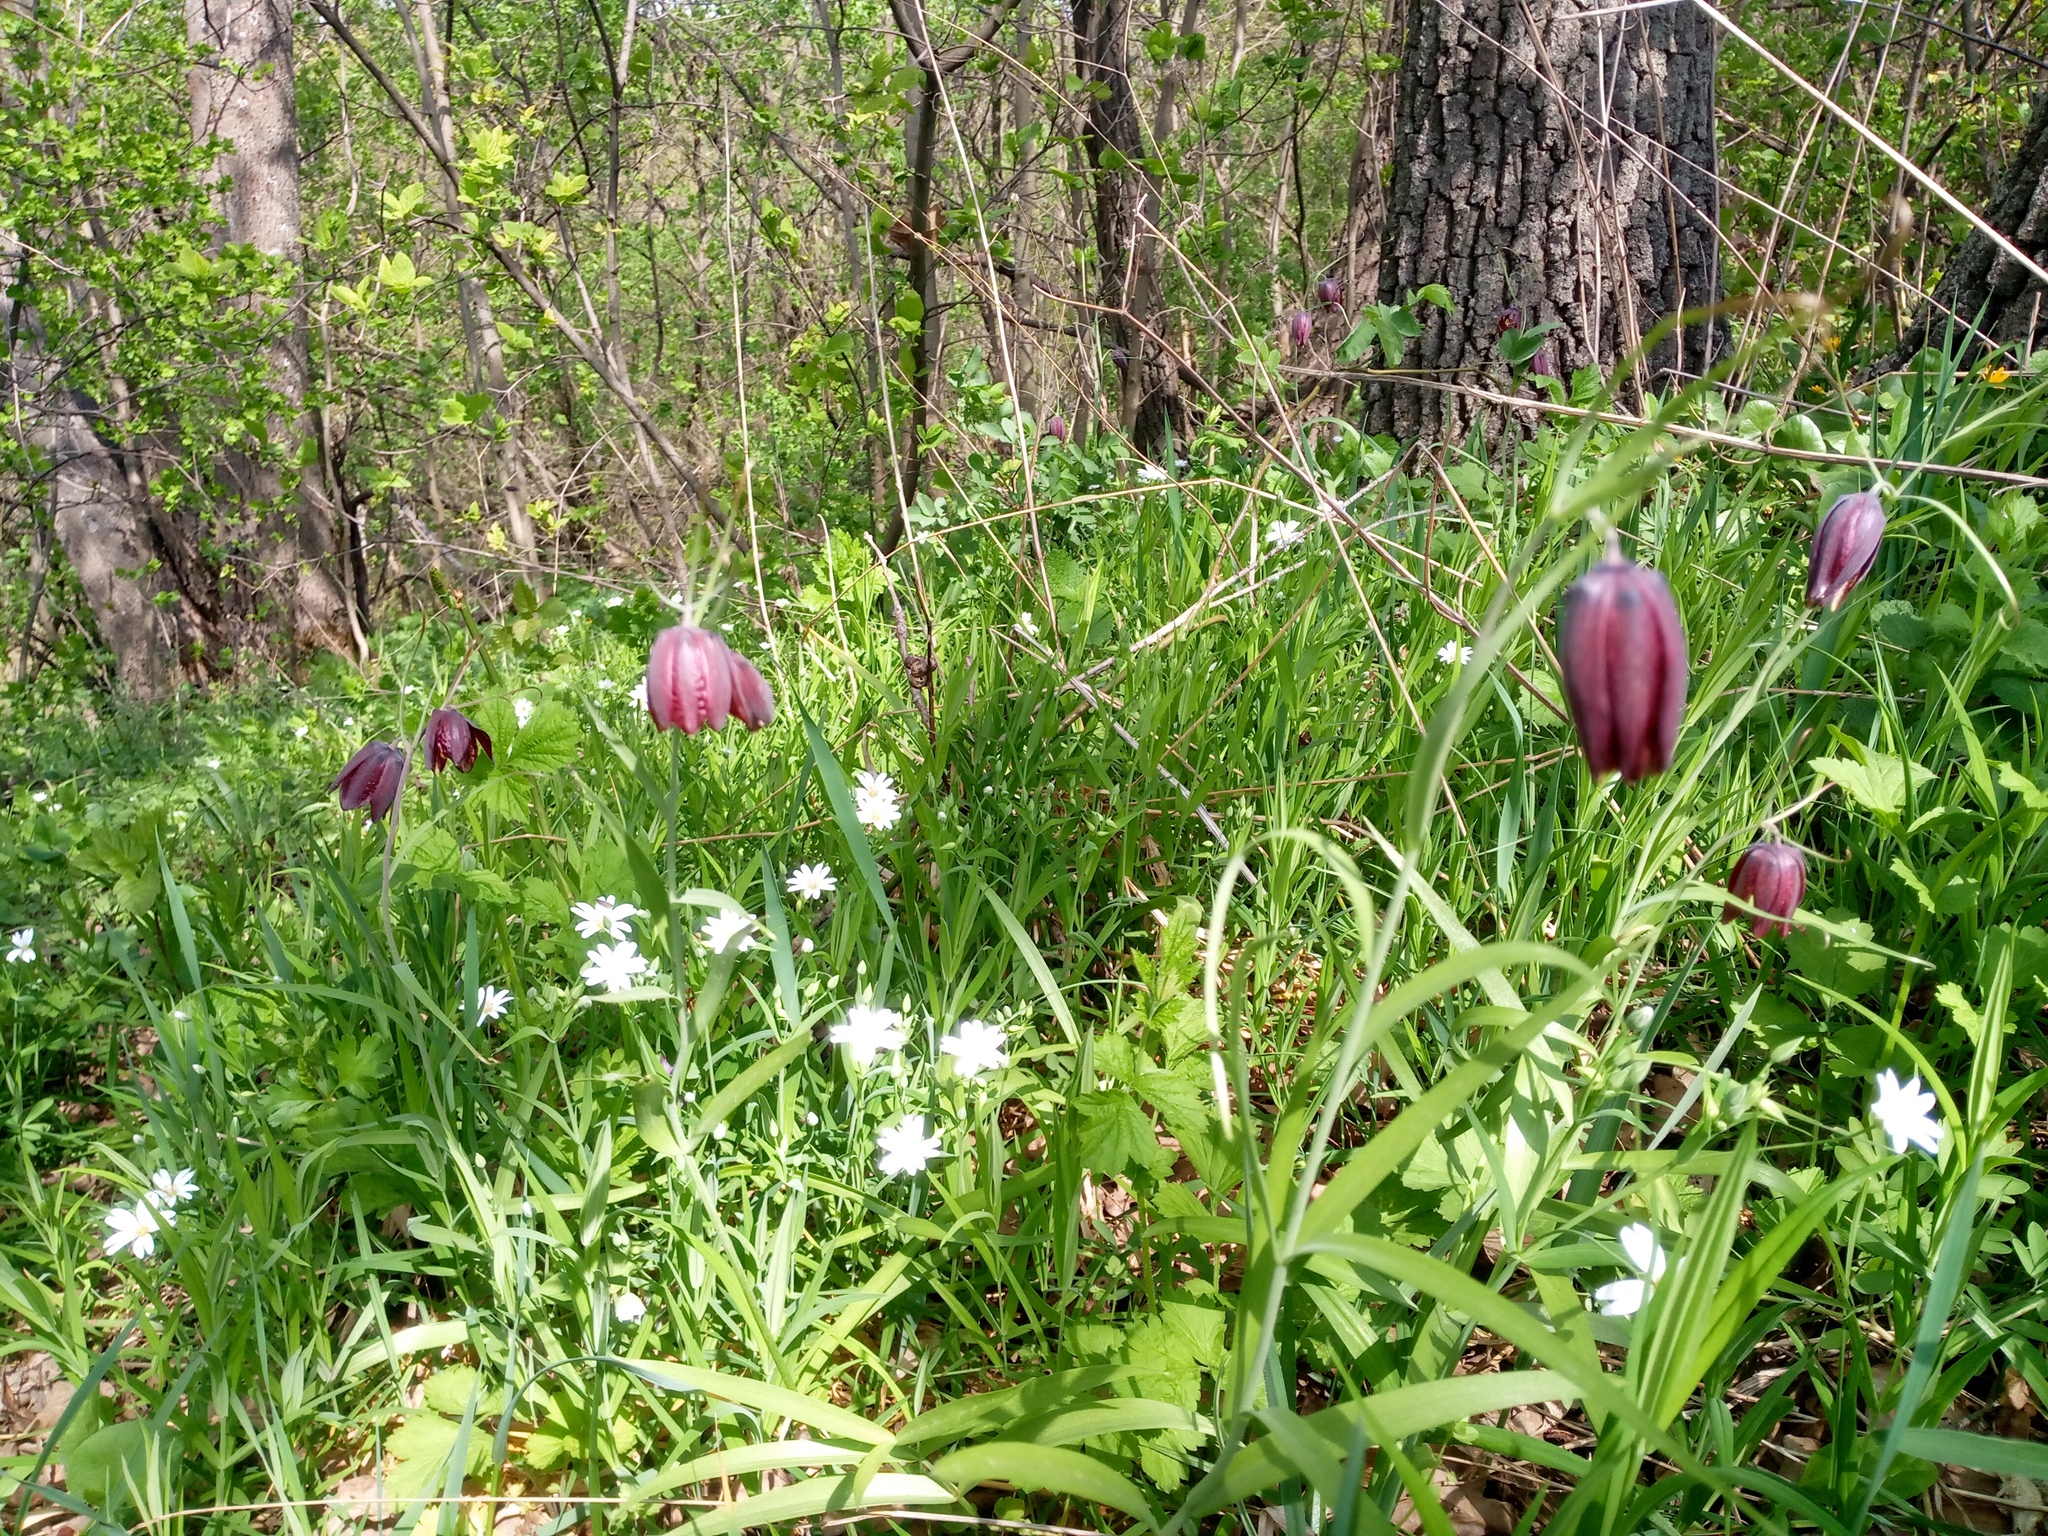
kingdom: Plantae
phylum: Tracheophyta
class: Liliopsida
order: Liliales
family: Liliaceae
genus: Fritillaria
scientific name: Fritillaria ruthenica
